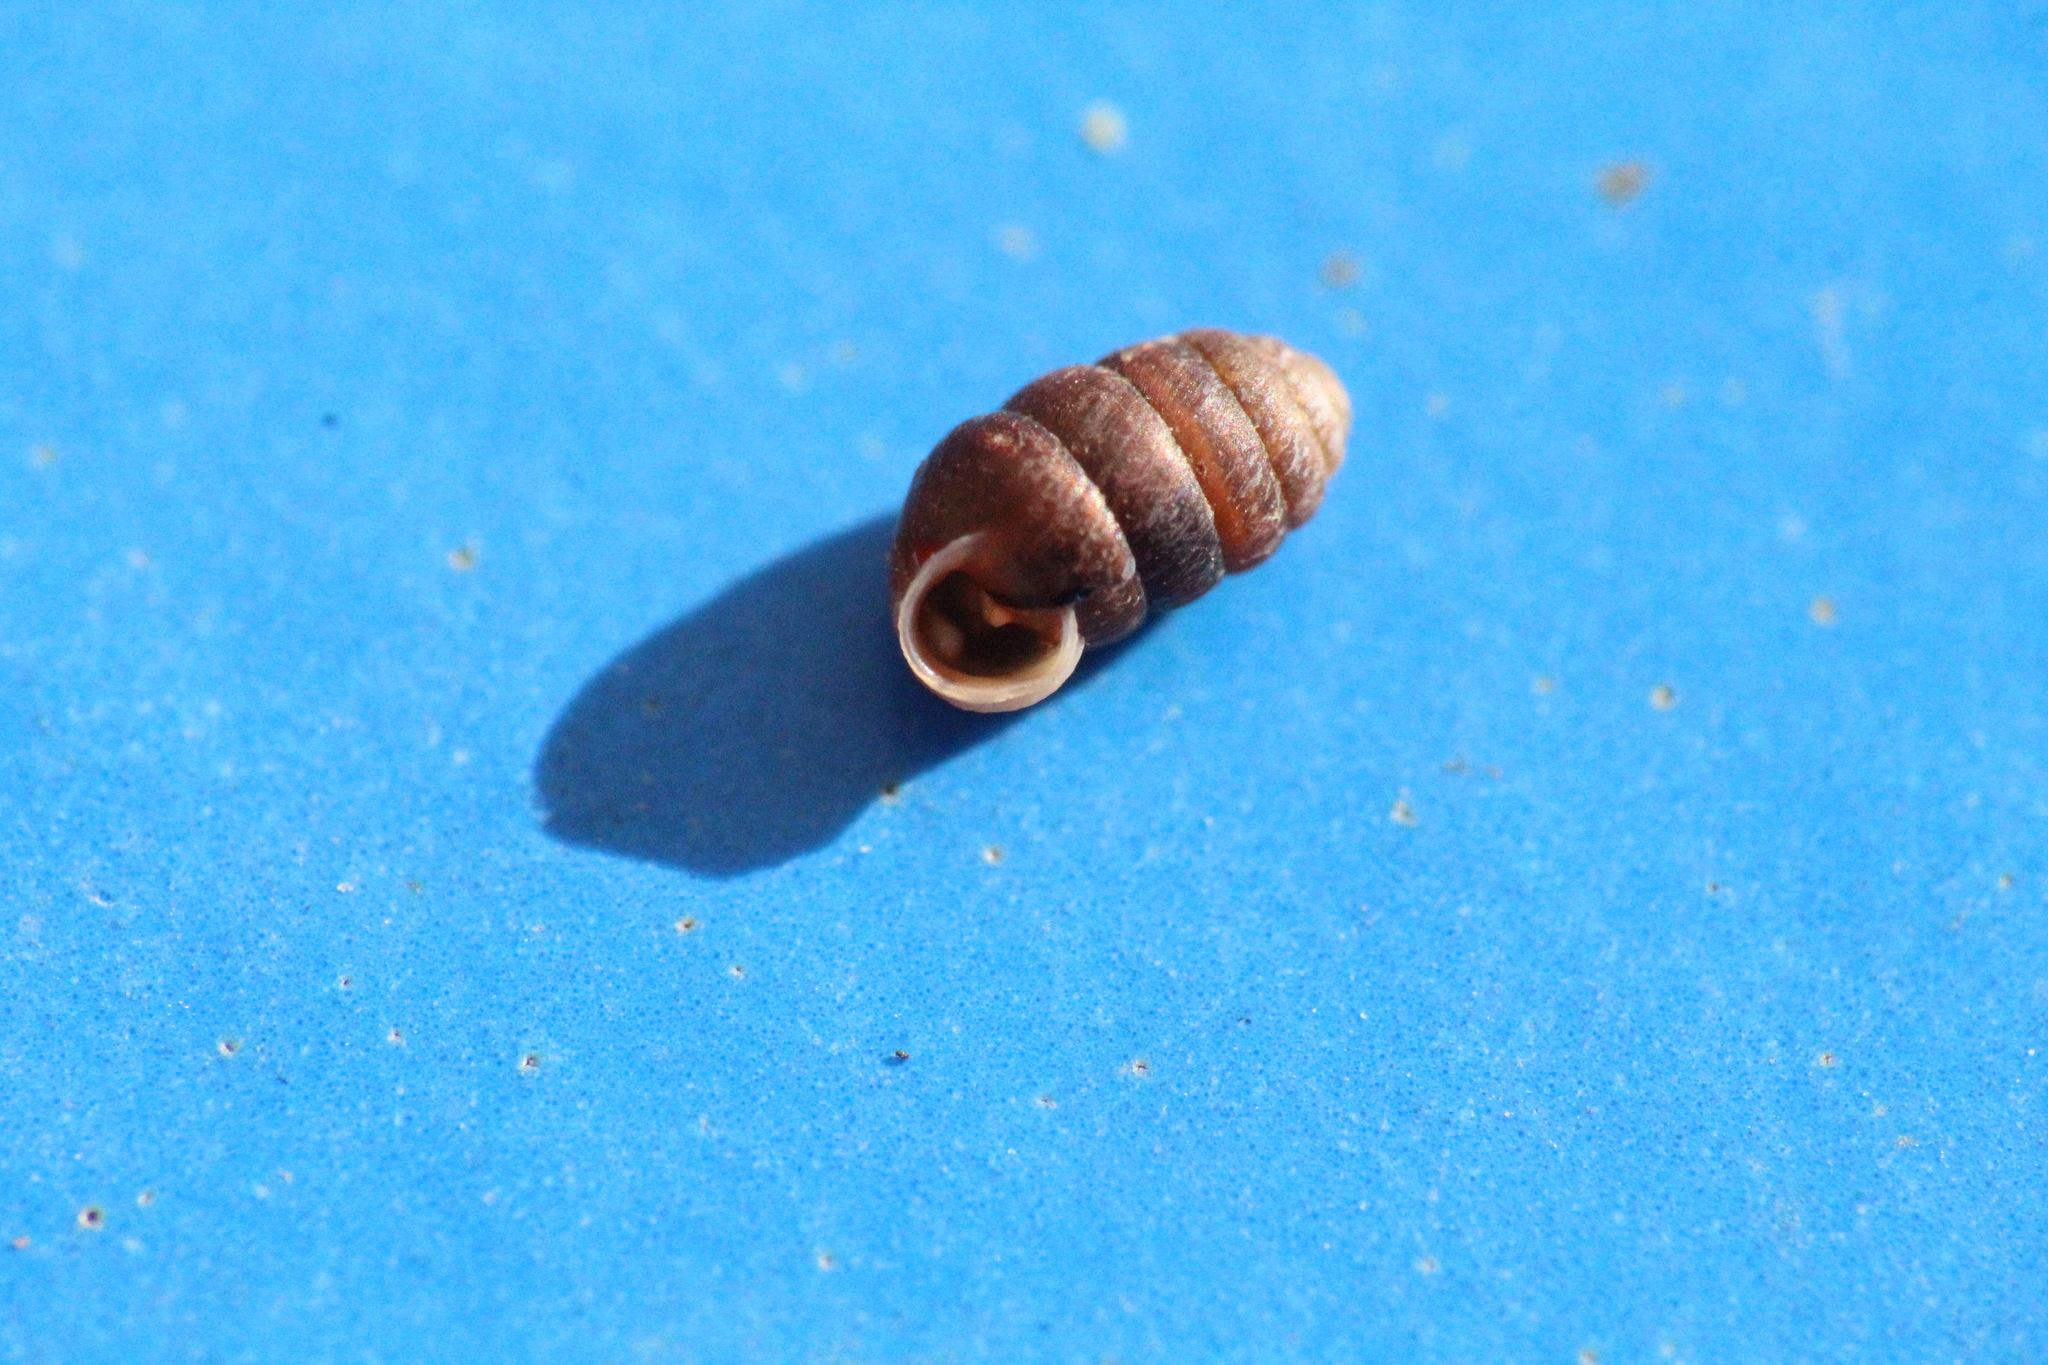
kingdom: Animalia
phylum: Mollusca
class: Gastropoda
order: Stylommatophora
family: Pupillidae
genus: Pupilla
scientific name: Pupilla triplicata
